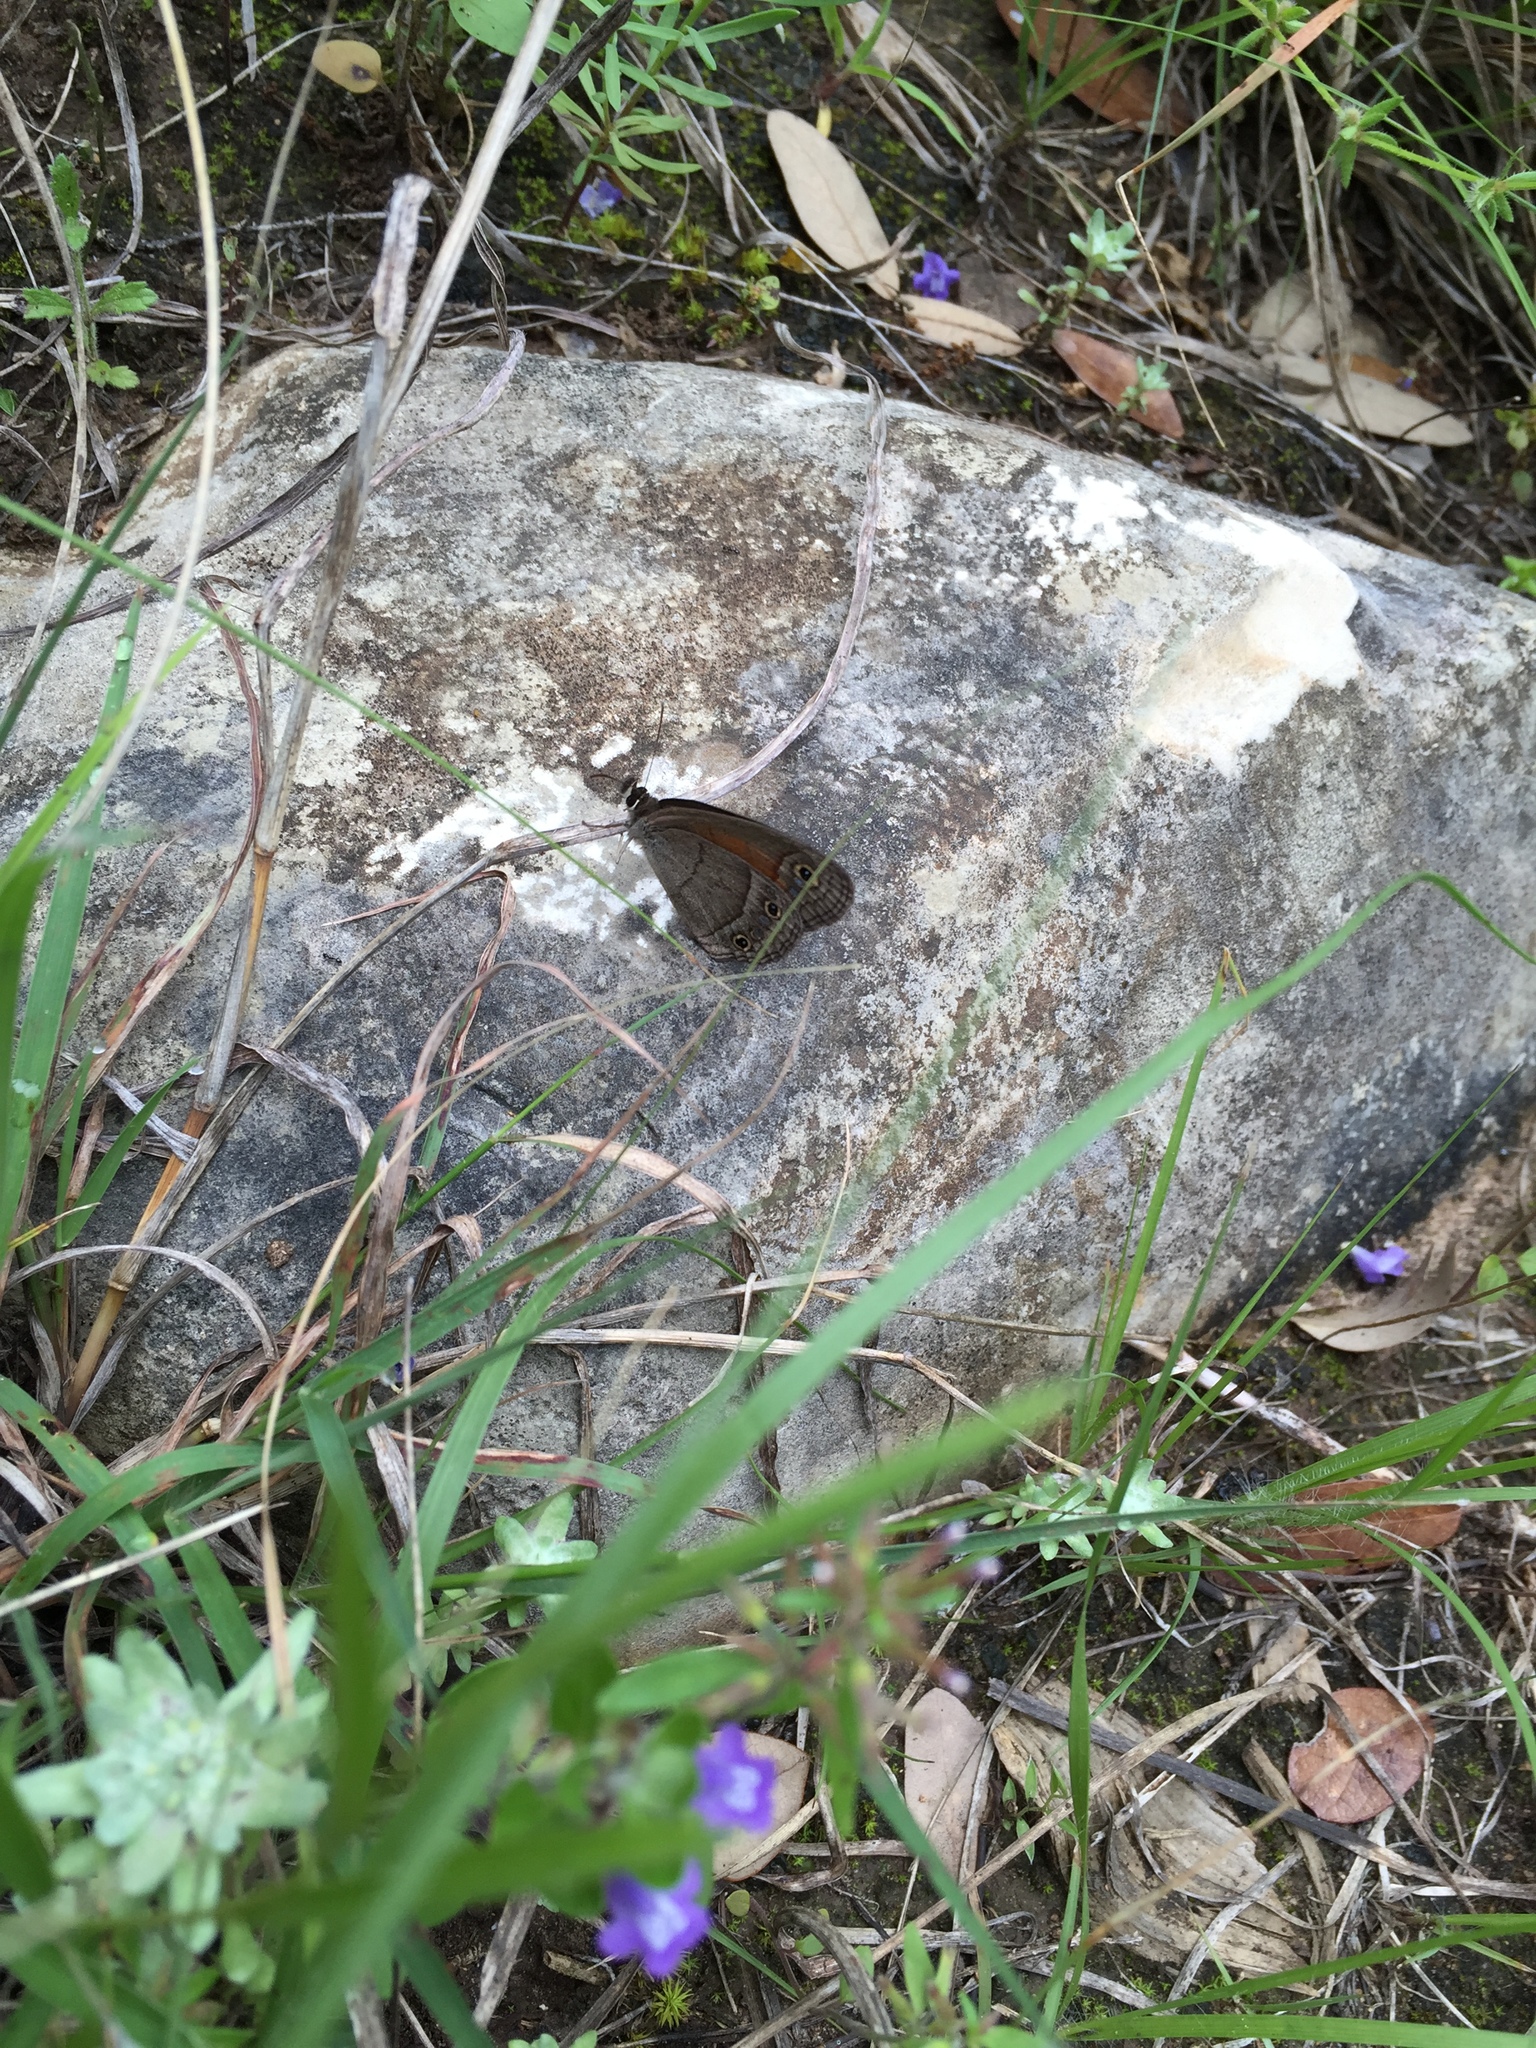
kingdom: Animalia
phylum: Arthropoda
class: Insecta
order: Lepidoptera
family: Nymphalidae
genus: Euptychia
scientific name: Euptychia Cissia rubricata
